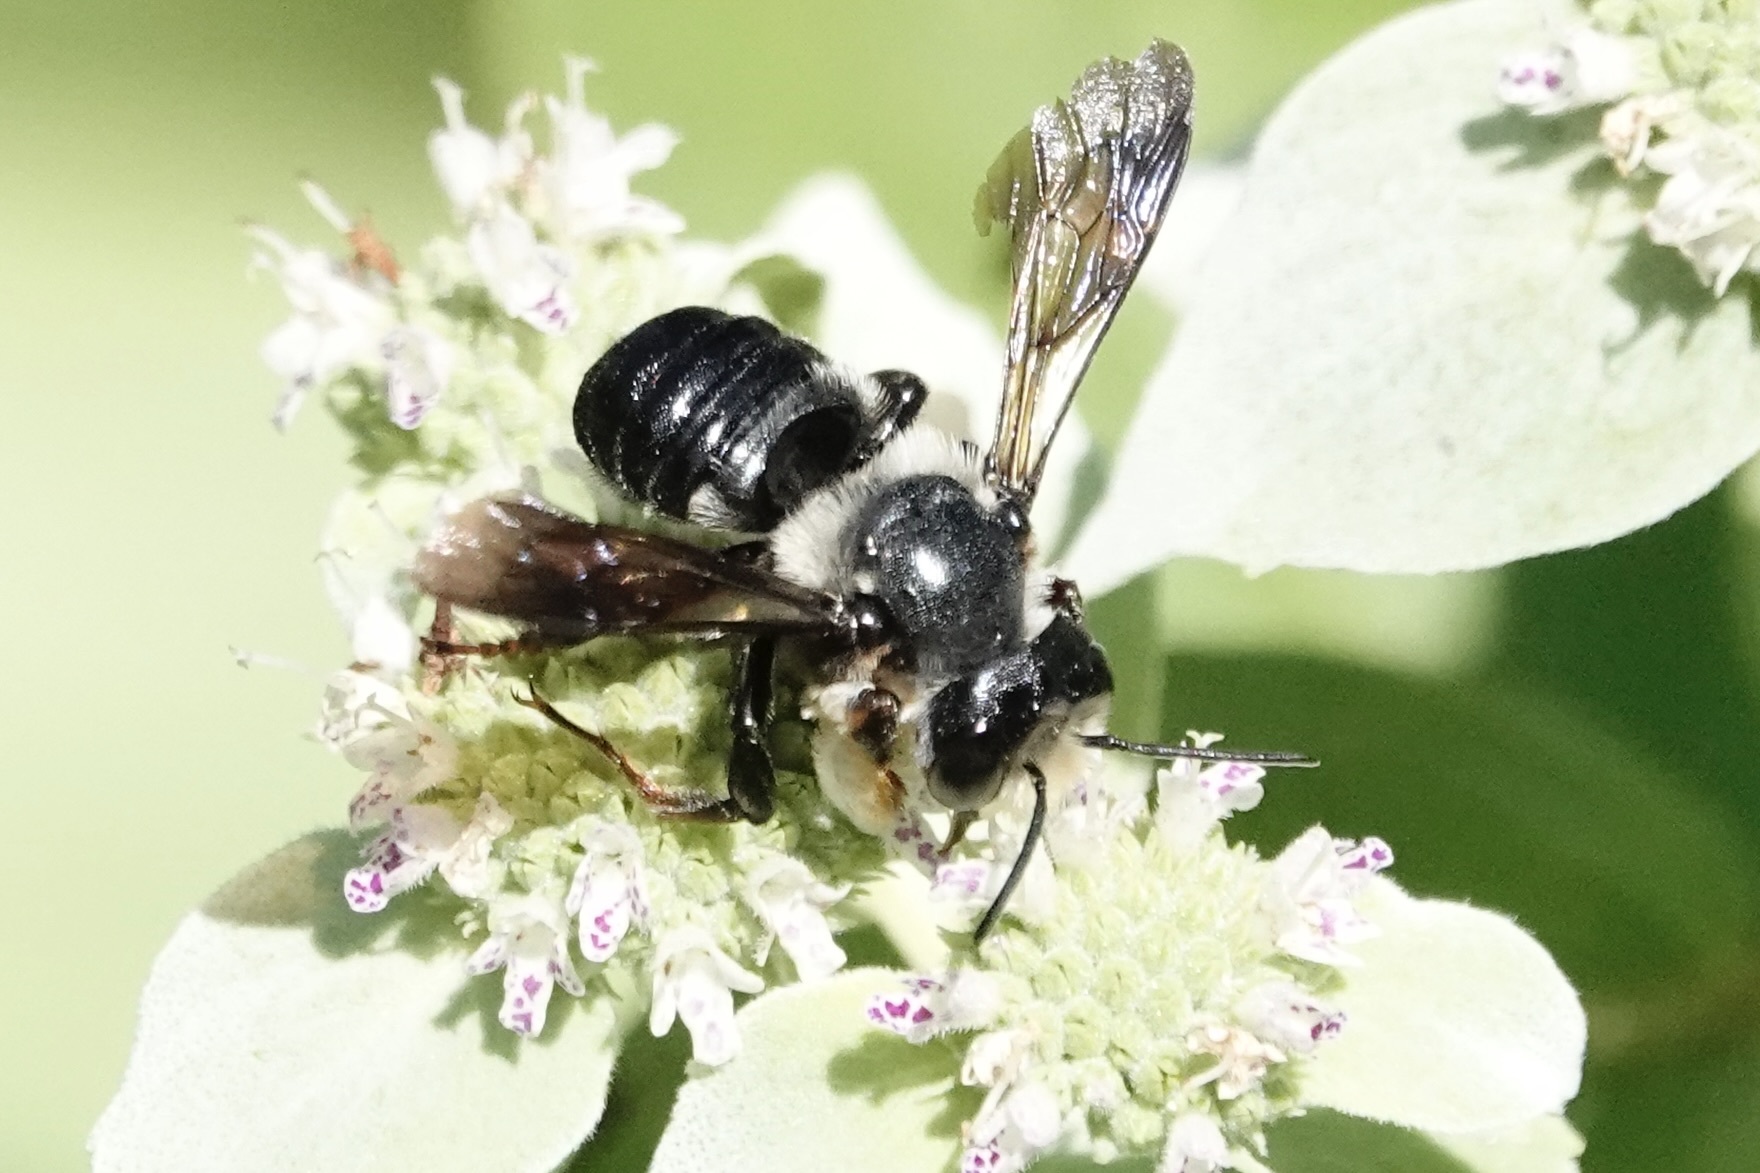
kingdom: Animalia
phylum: Arthropoda
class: Insecta
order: Hymenoptera
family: Megachilidae
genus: Megachile
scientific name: Megachile xylocopoides
